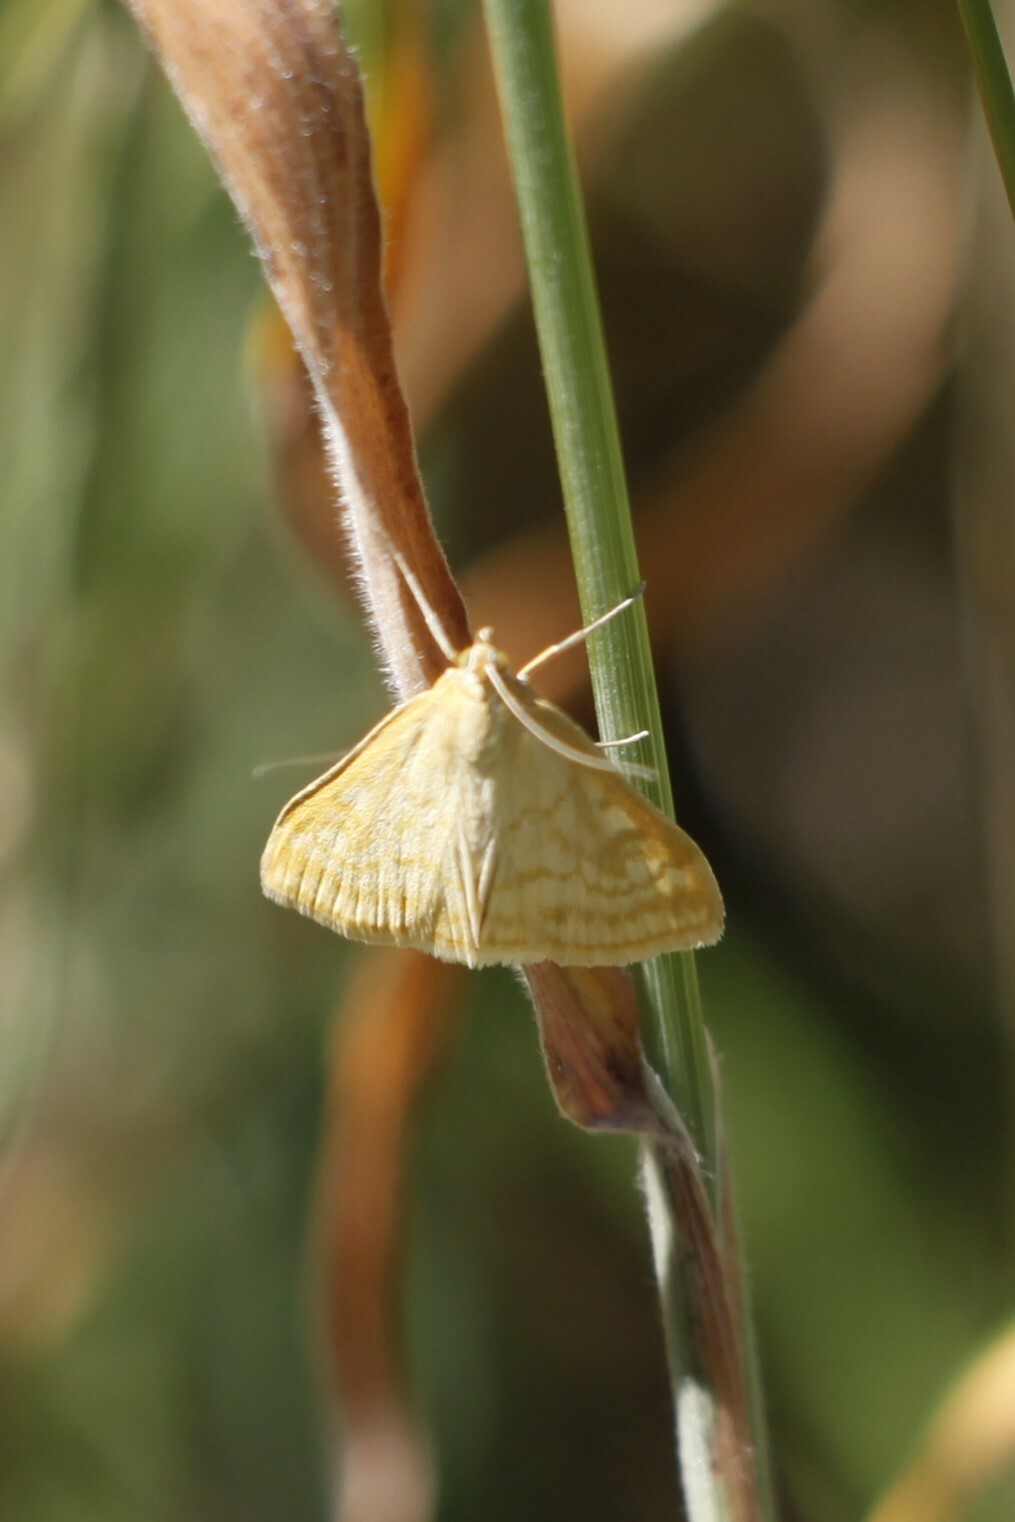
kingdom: Animalia
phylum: Arthropoda
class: Insecta
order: Lepidoptera
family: Crambidae
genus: Sitochroa
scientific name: Sitochroa verticalis
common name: Lesser pearl
